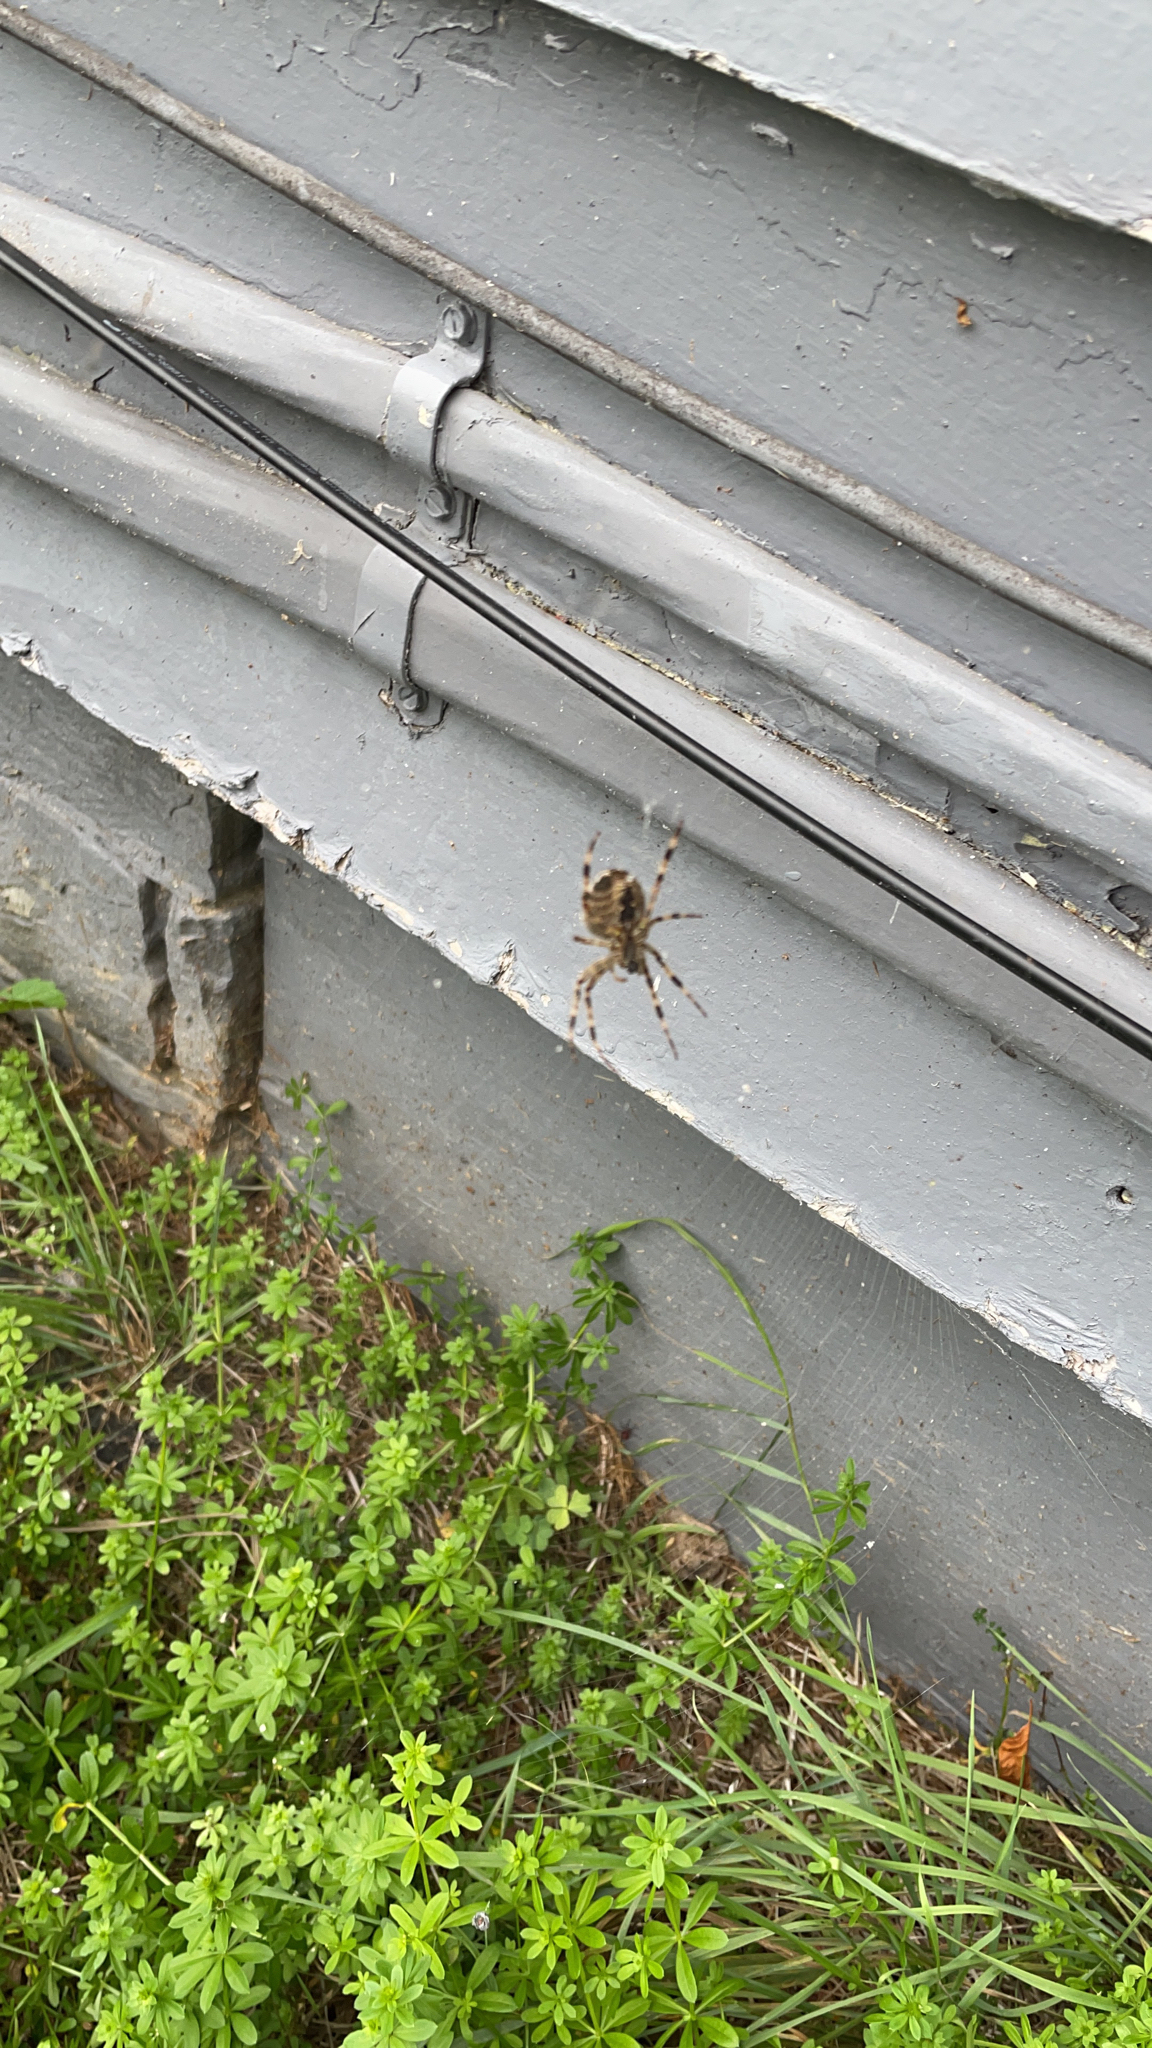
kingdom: Animalia
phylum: Arthropoda
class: Arachnida
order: Araneae
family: Araneidae
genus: Araneus
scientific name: Araneus diadematus
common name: Cross orbweaver
